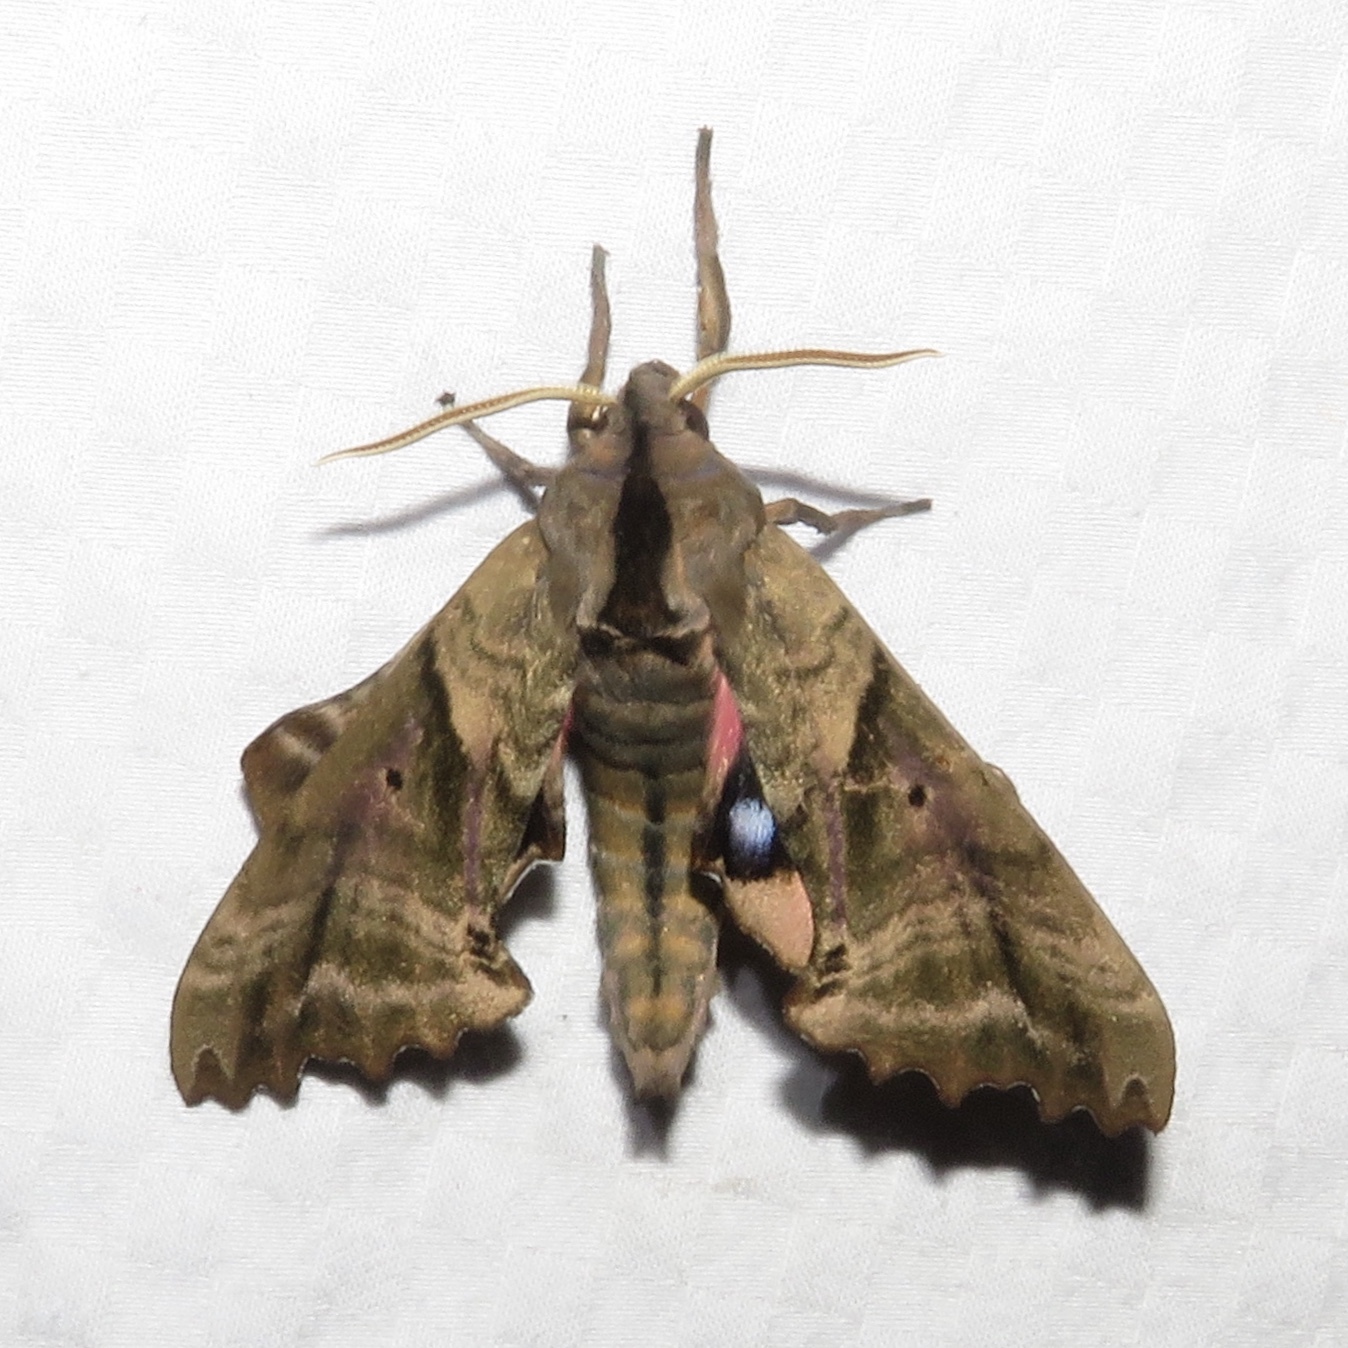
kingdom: Animalia
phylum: Arthropoda
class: Insecta
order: Lepidoptera
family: Sphingidae
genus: Paonias
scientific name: Paonias excaecata
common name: Blind-eyed sphinx
